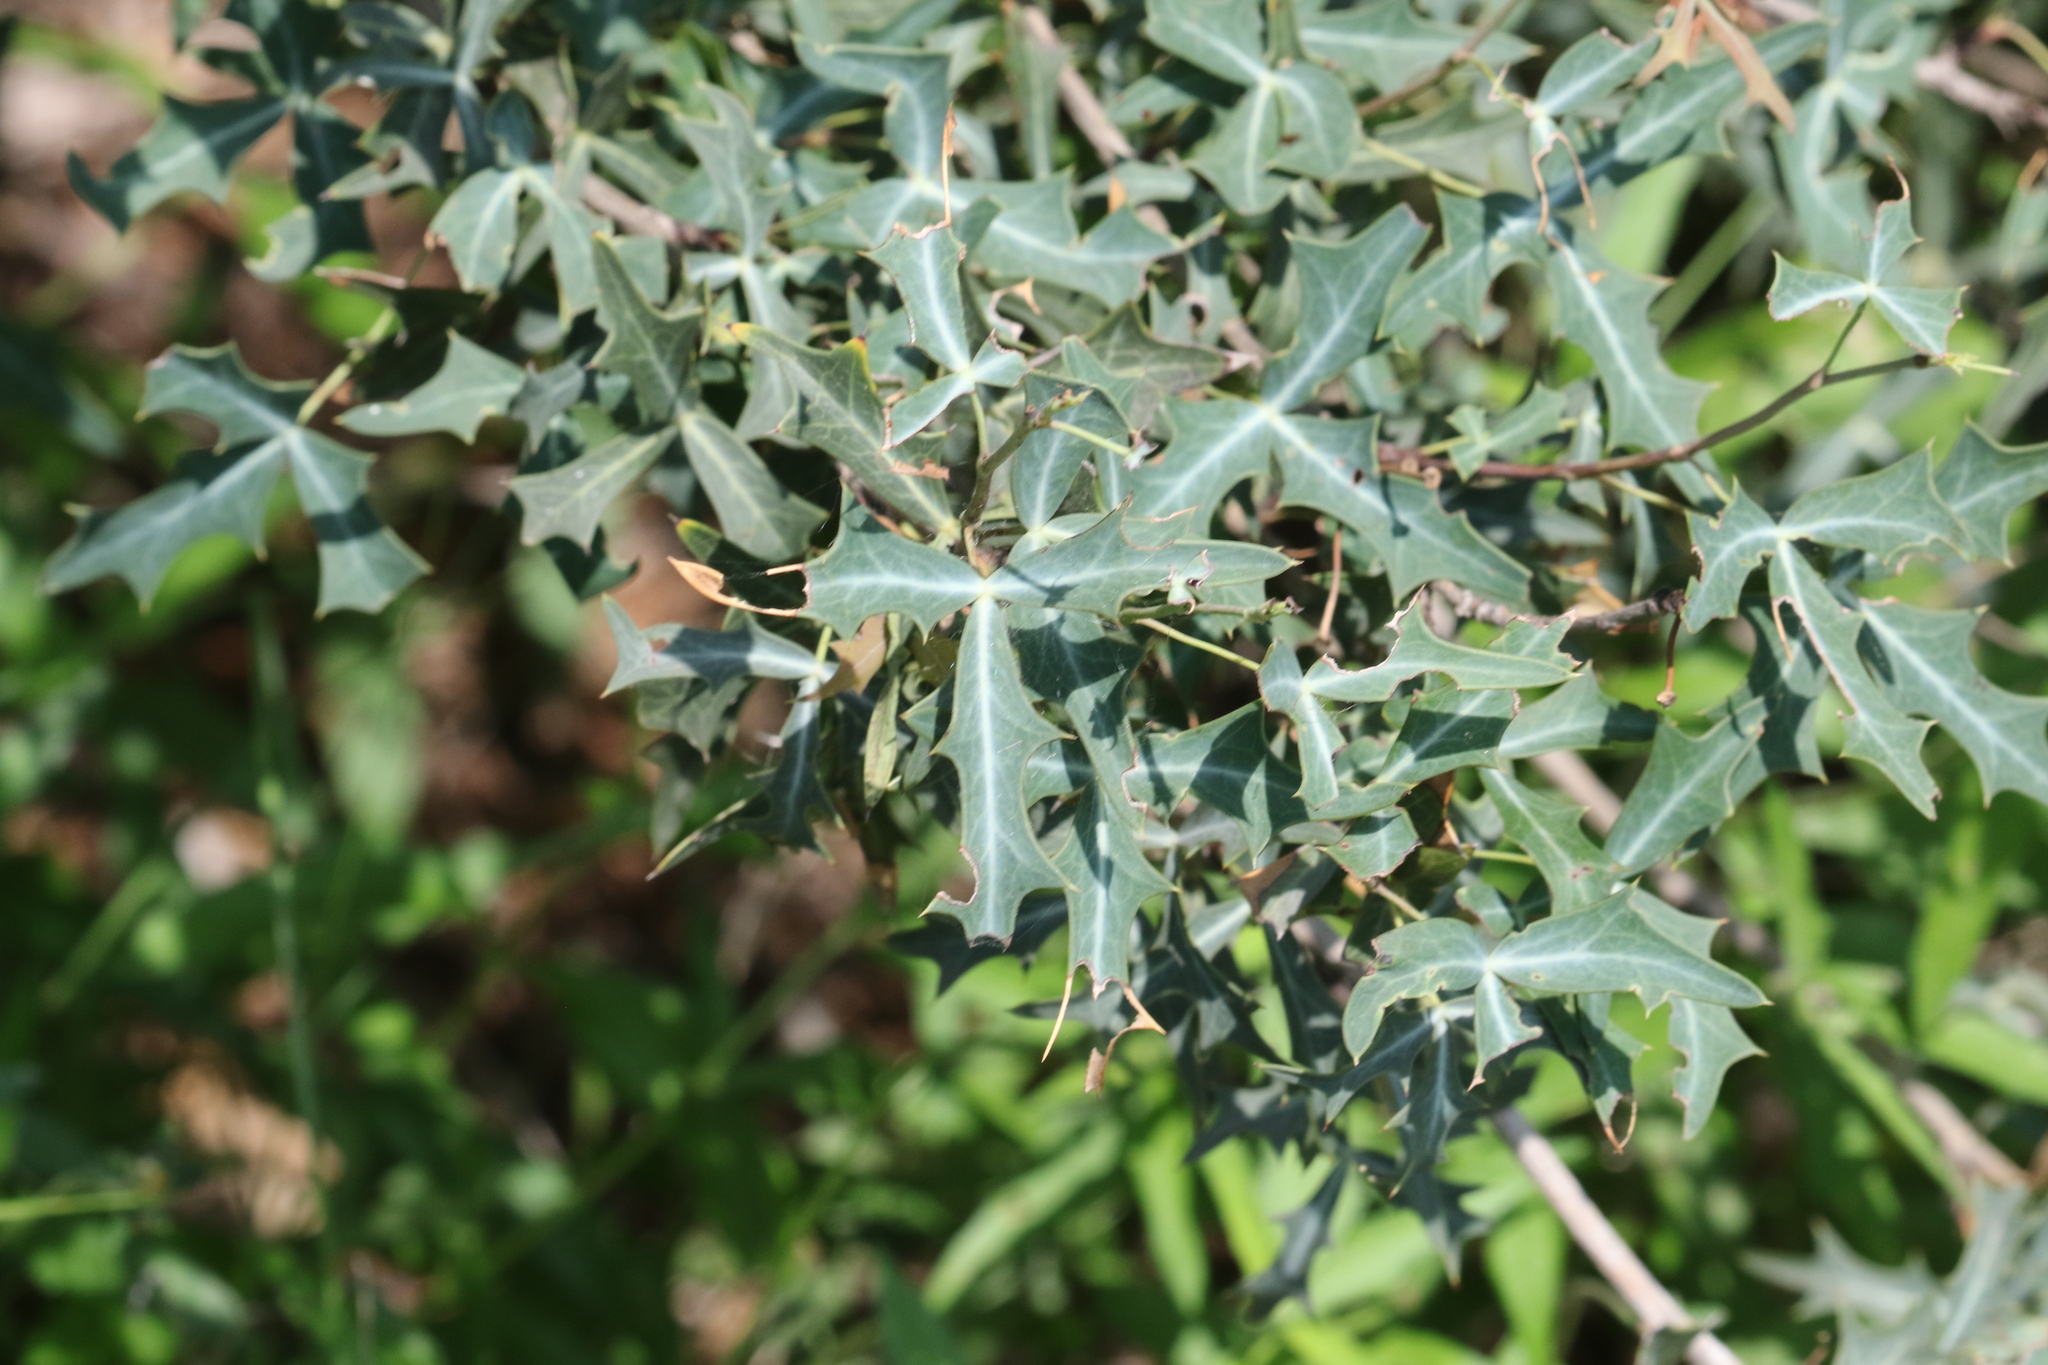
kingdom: Plantae
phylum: Tracheophyta
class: Magnoliopsida
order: Ranunculales
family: Berberidaceae
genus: Alloberberis
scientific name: Alloberberis trifoliolata
